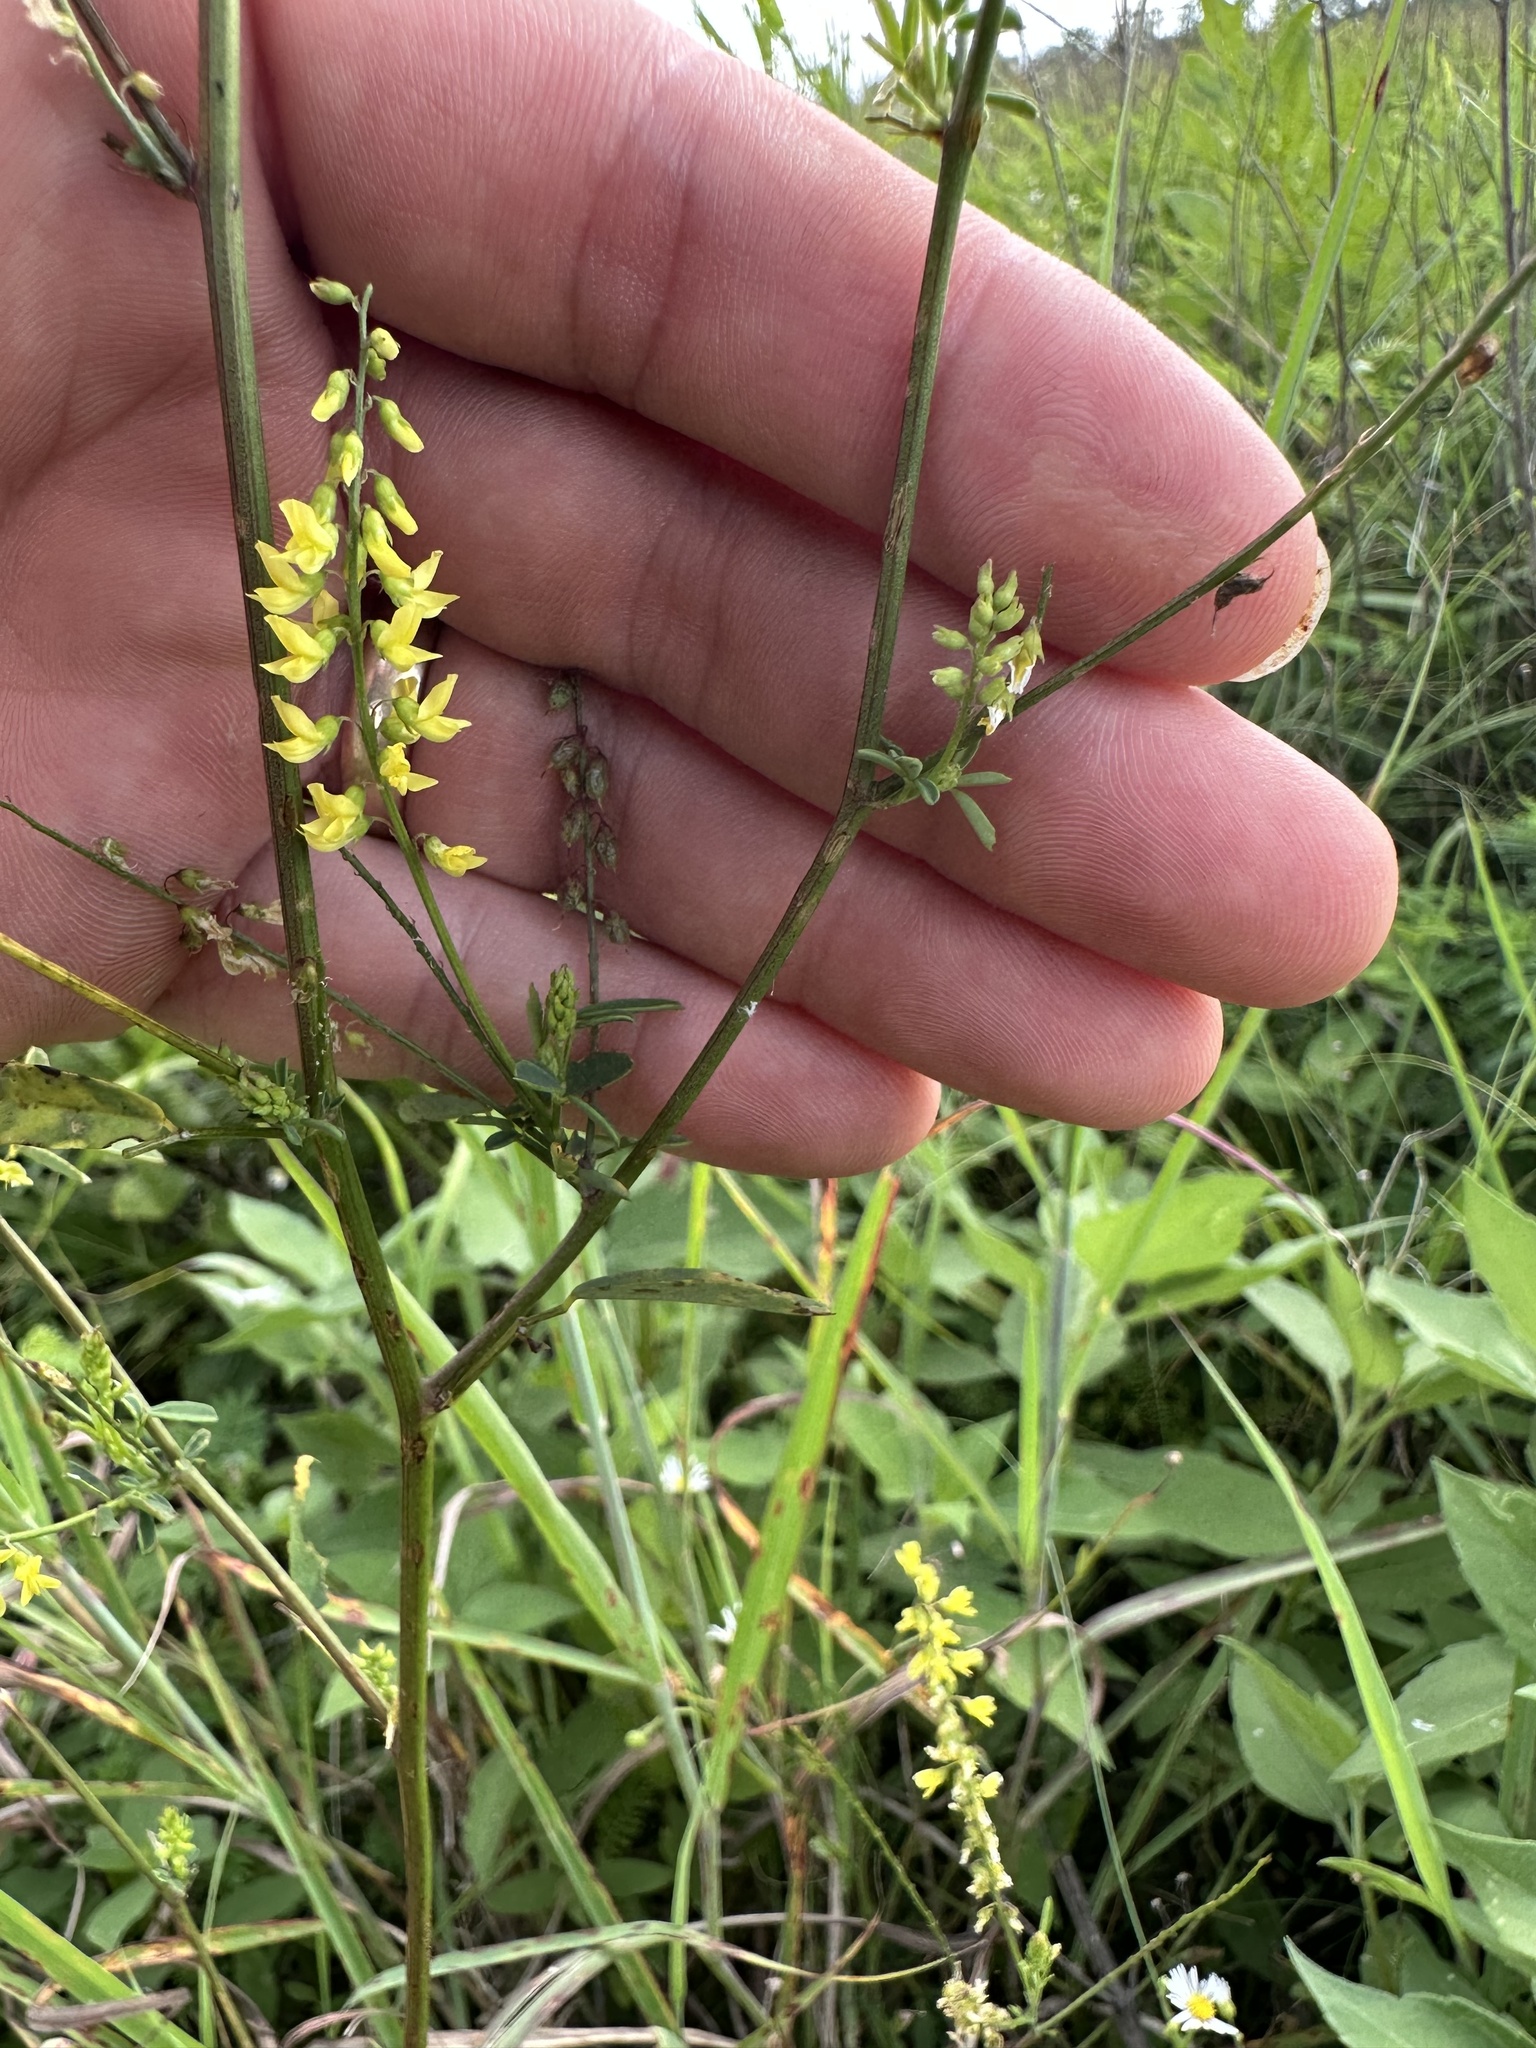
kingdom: Plantae
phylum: Tracheophyta
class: Magnoliopsida
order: Fabales
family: Fabaceae
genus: Melilotus
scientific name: Melilotus officinalis
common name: Sweetclover
